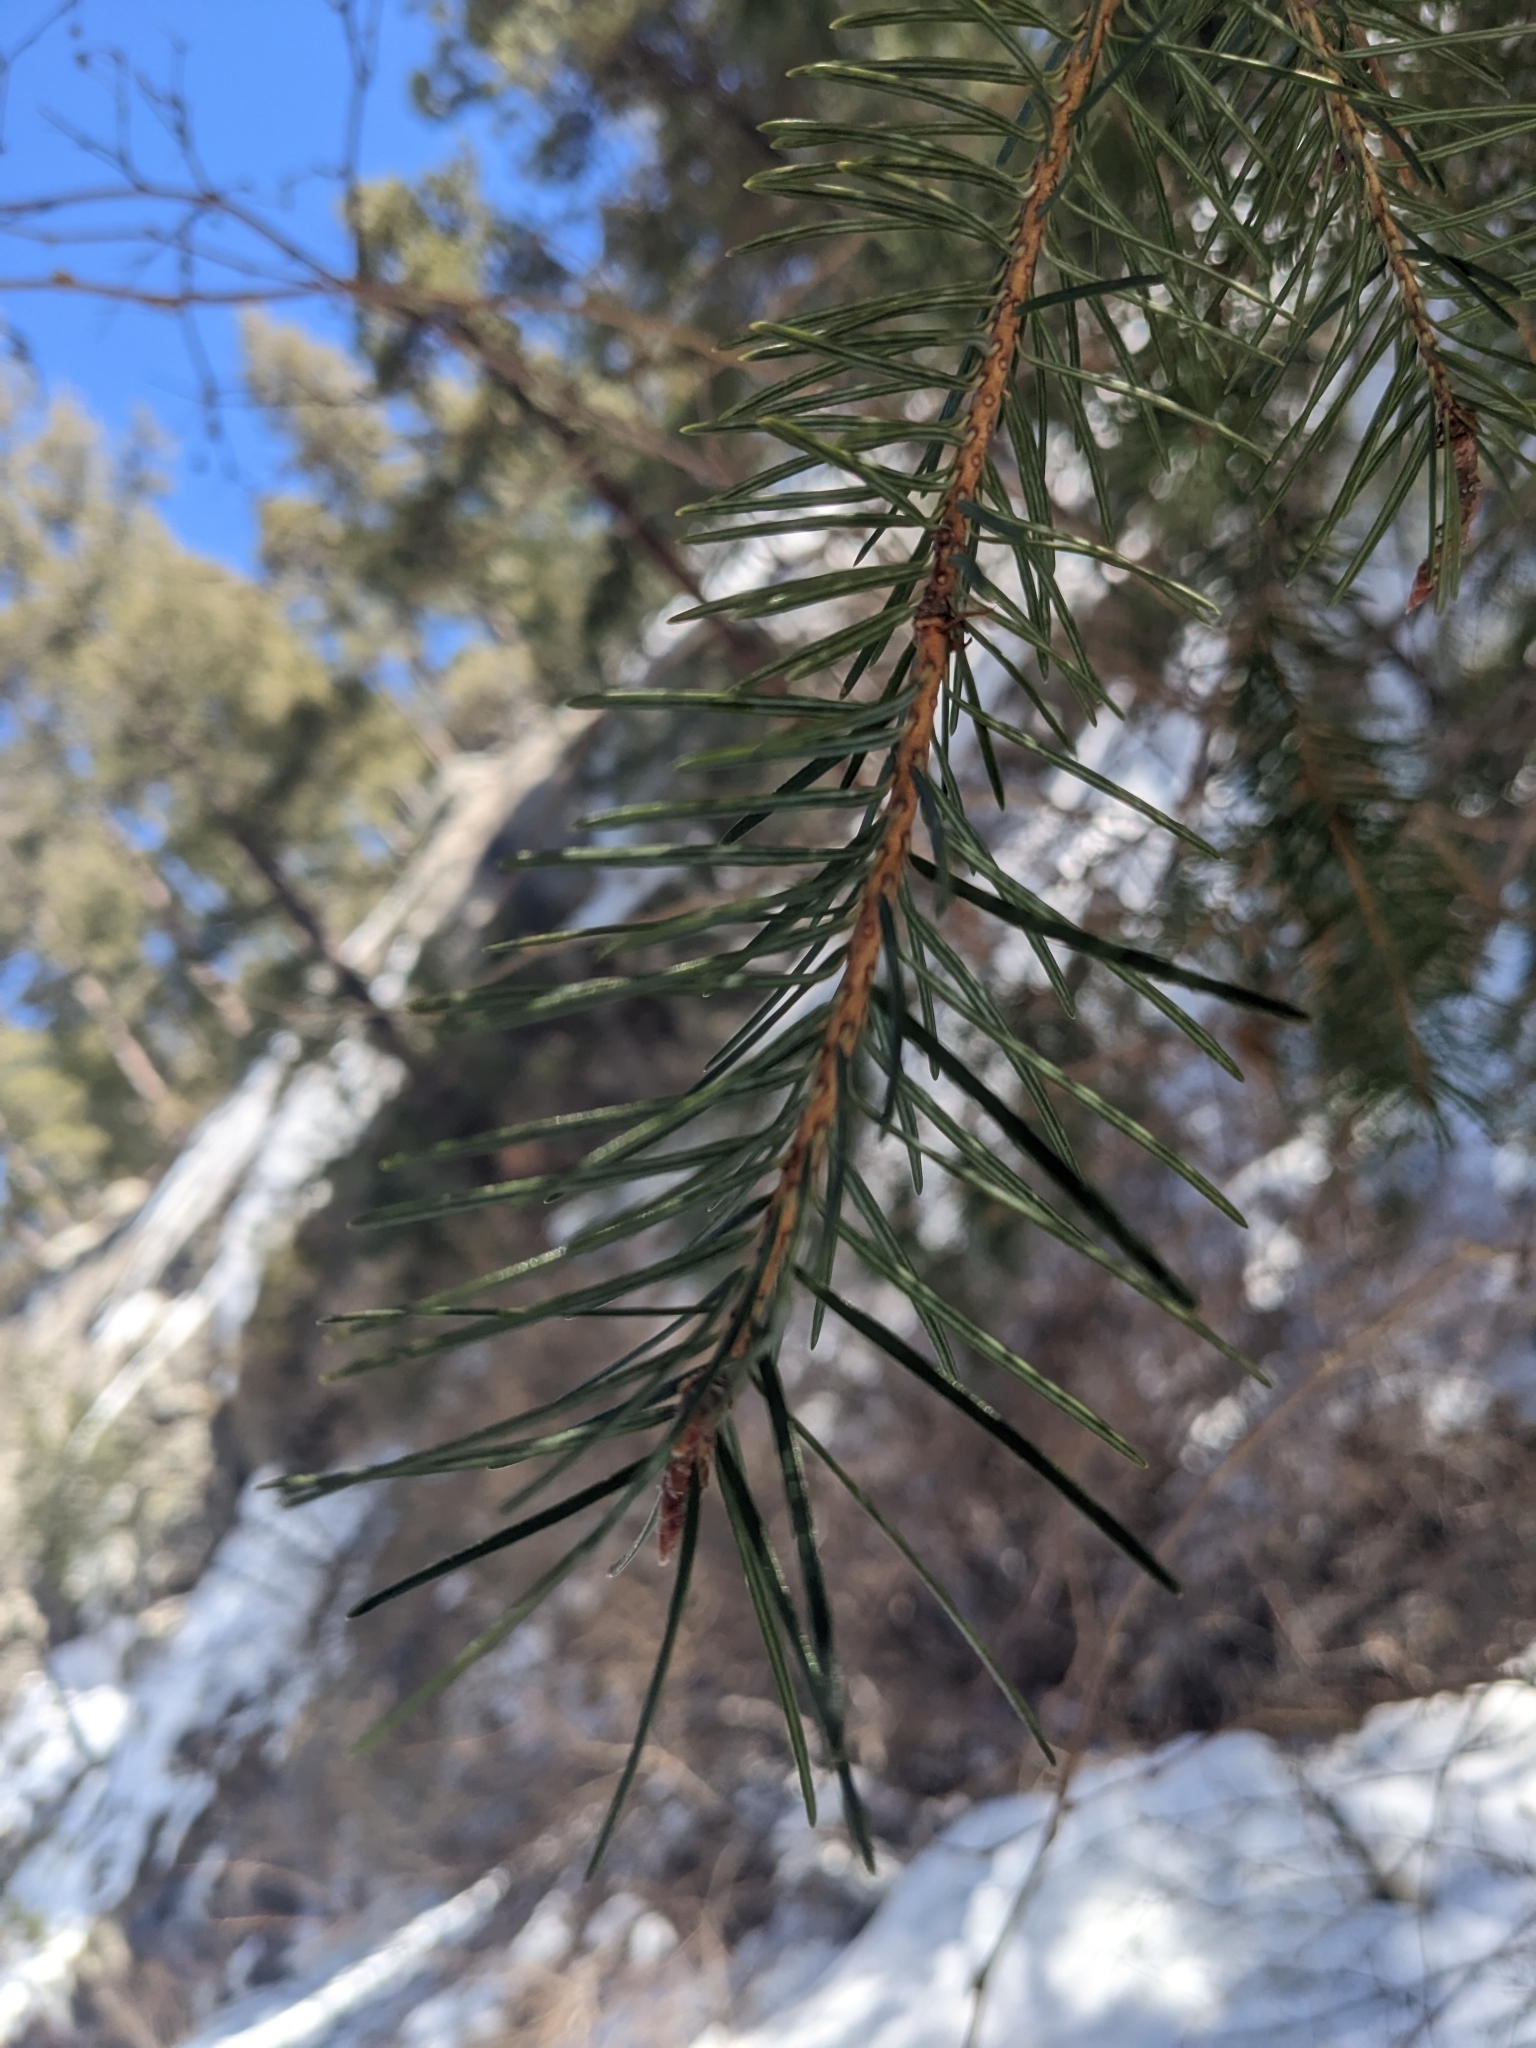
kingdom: Plantae
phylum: Tracheophyta
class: Pinopsida
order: Pinales
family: Pinaceae
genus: Pseudotsuga
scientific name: Pseudotsuga menziesii
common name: Douglas fir
